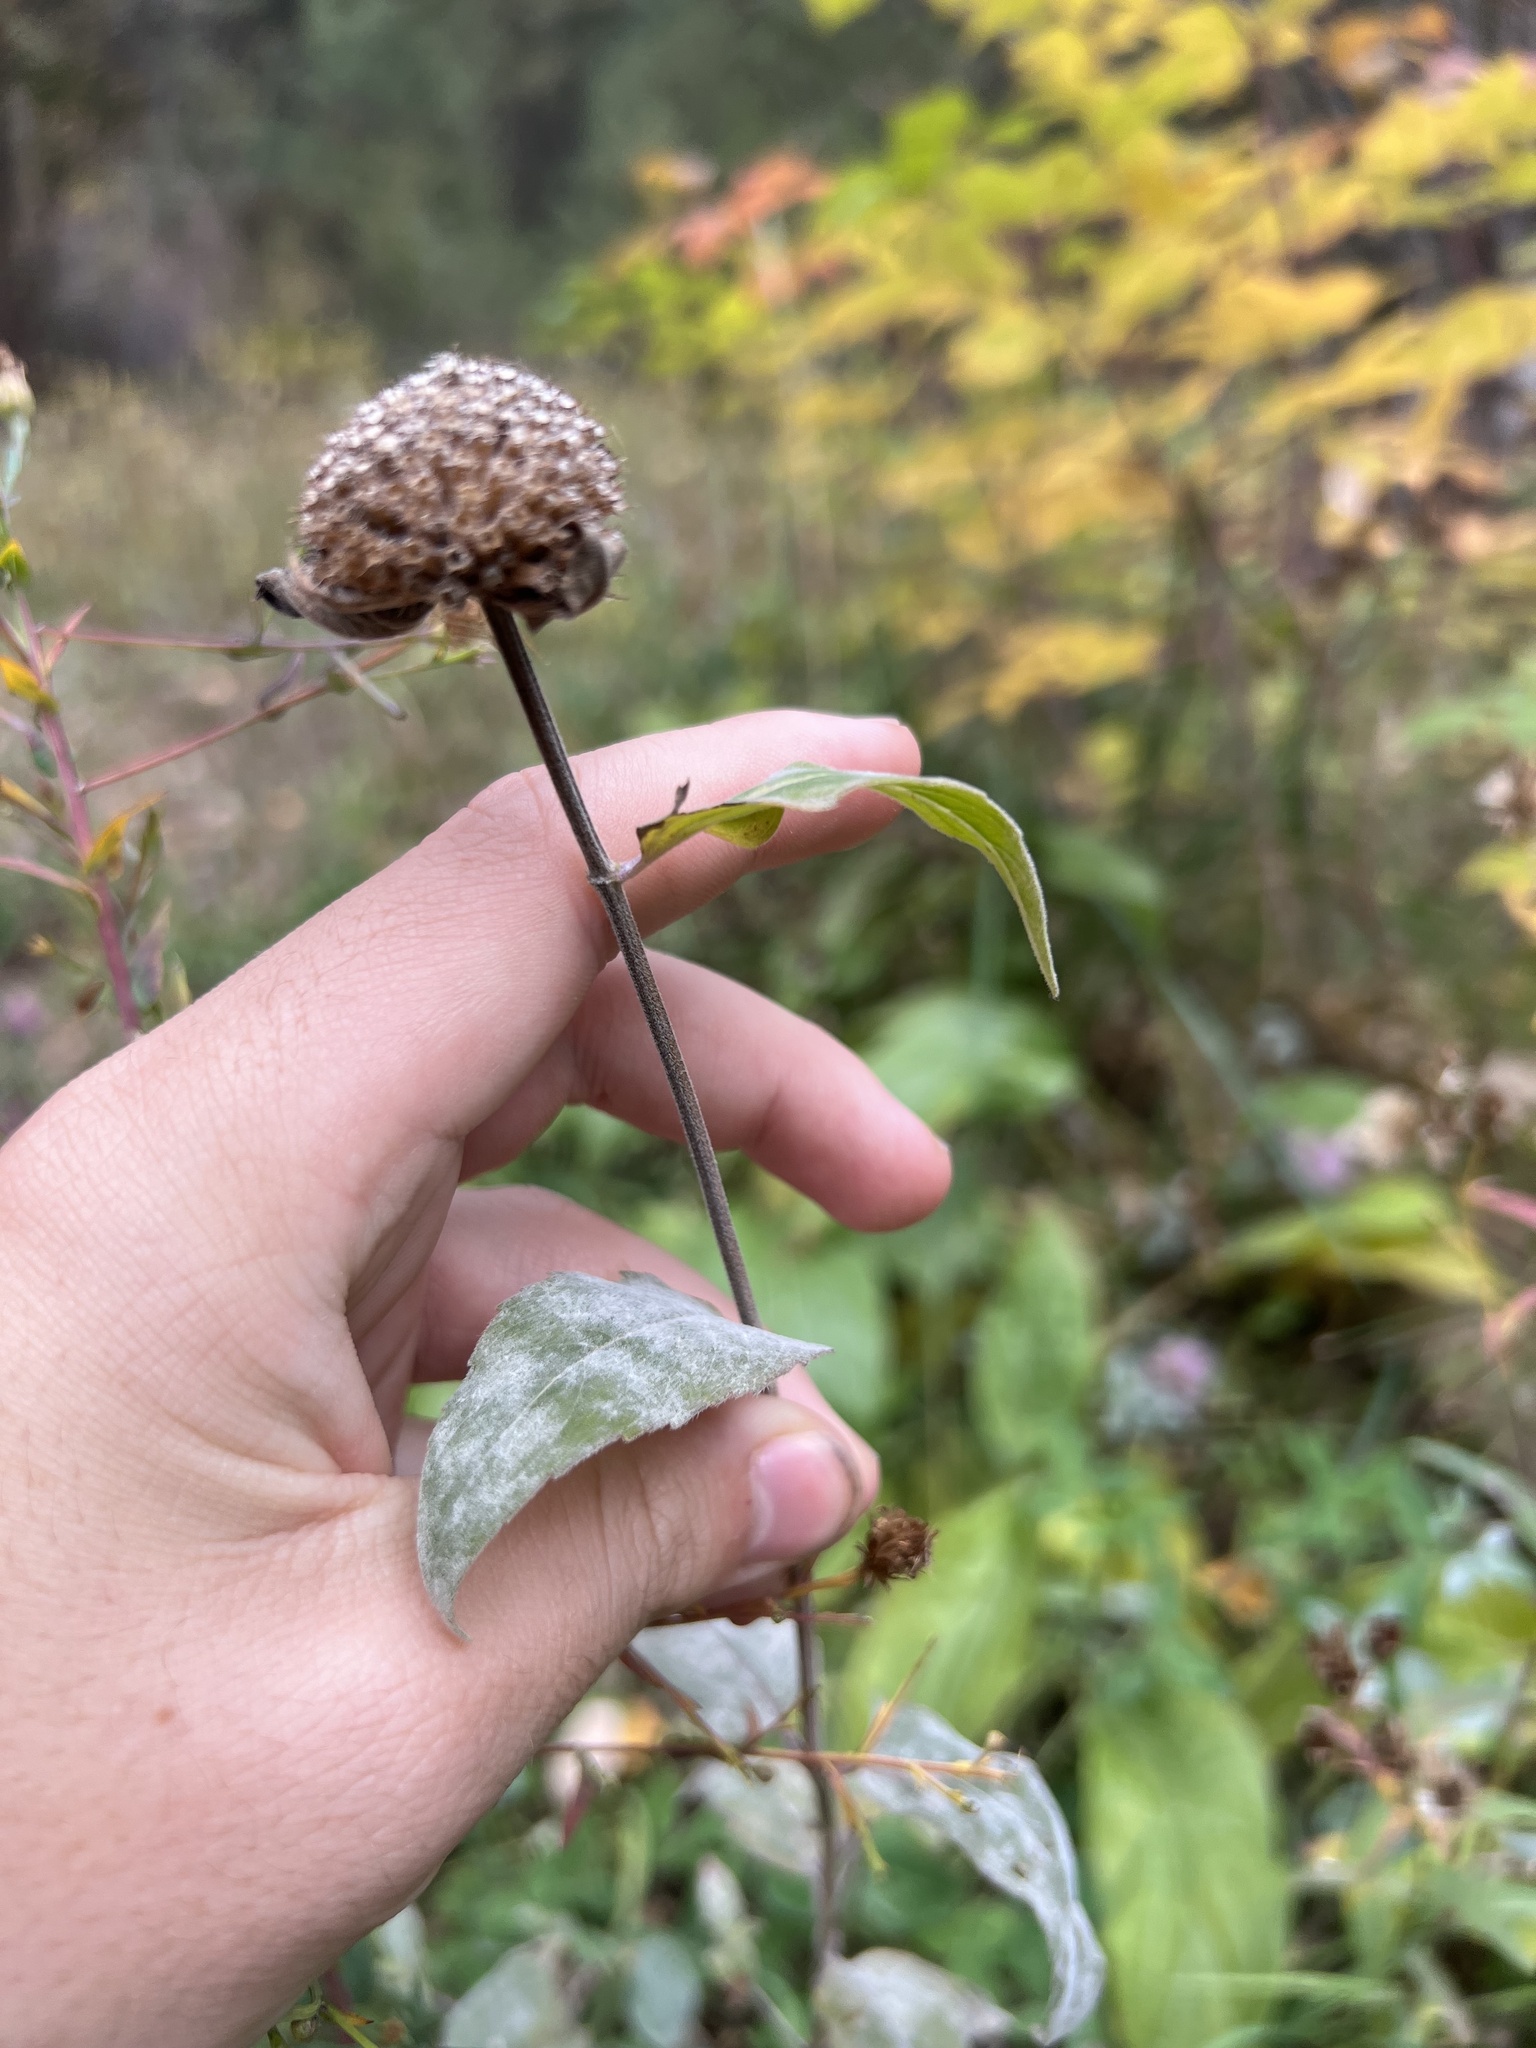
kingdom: Plantae
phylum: Tracheophyta
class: Magnoliopsida
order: Lamiales
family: Lamiaceae
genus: Monarda
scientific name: Monarda fistulosa
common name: Purple beebalm
